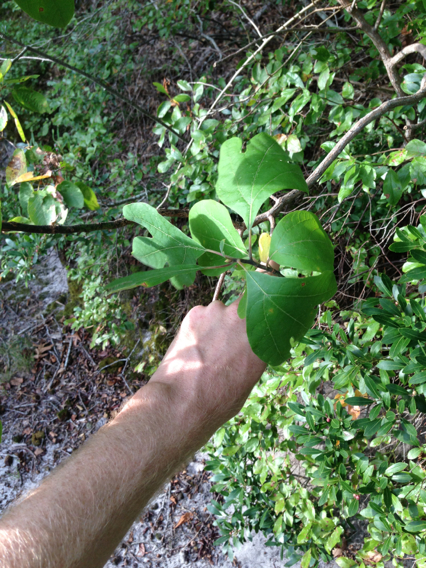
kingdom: Plantae
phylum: Tracheophyta
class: Magnoliopsida
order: Laurales
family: Lauraceae
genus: Sassafras
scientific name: Sassafras albidum
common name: Sassafras
